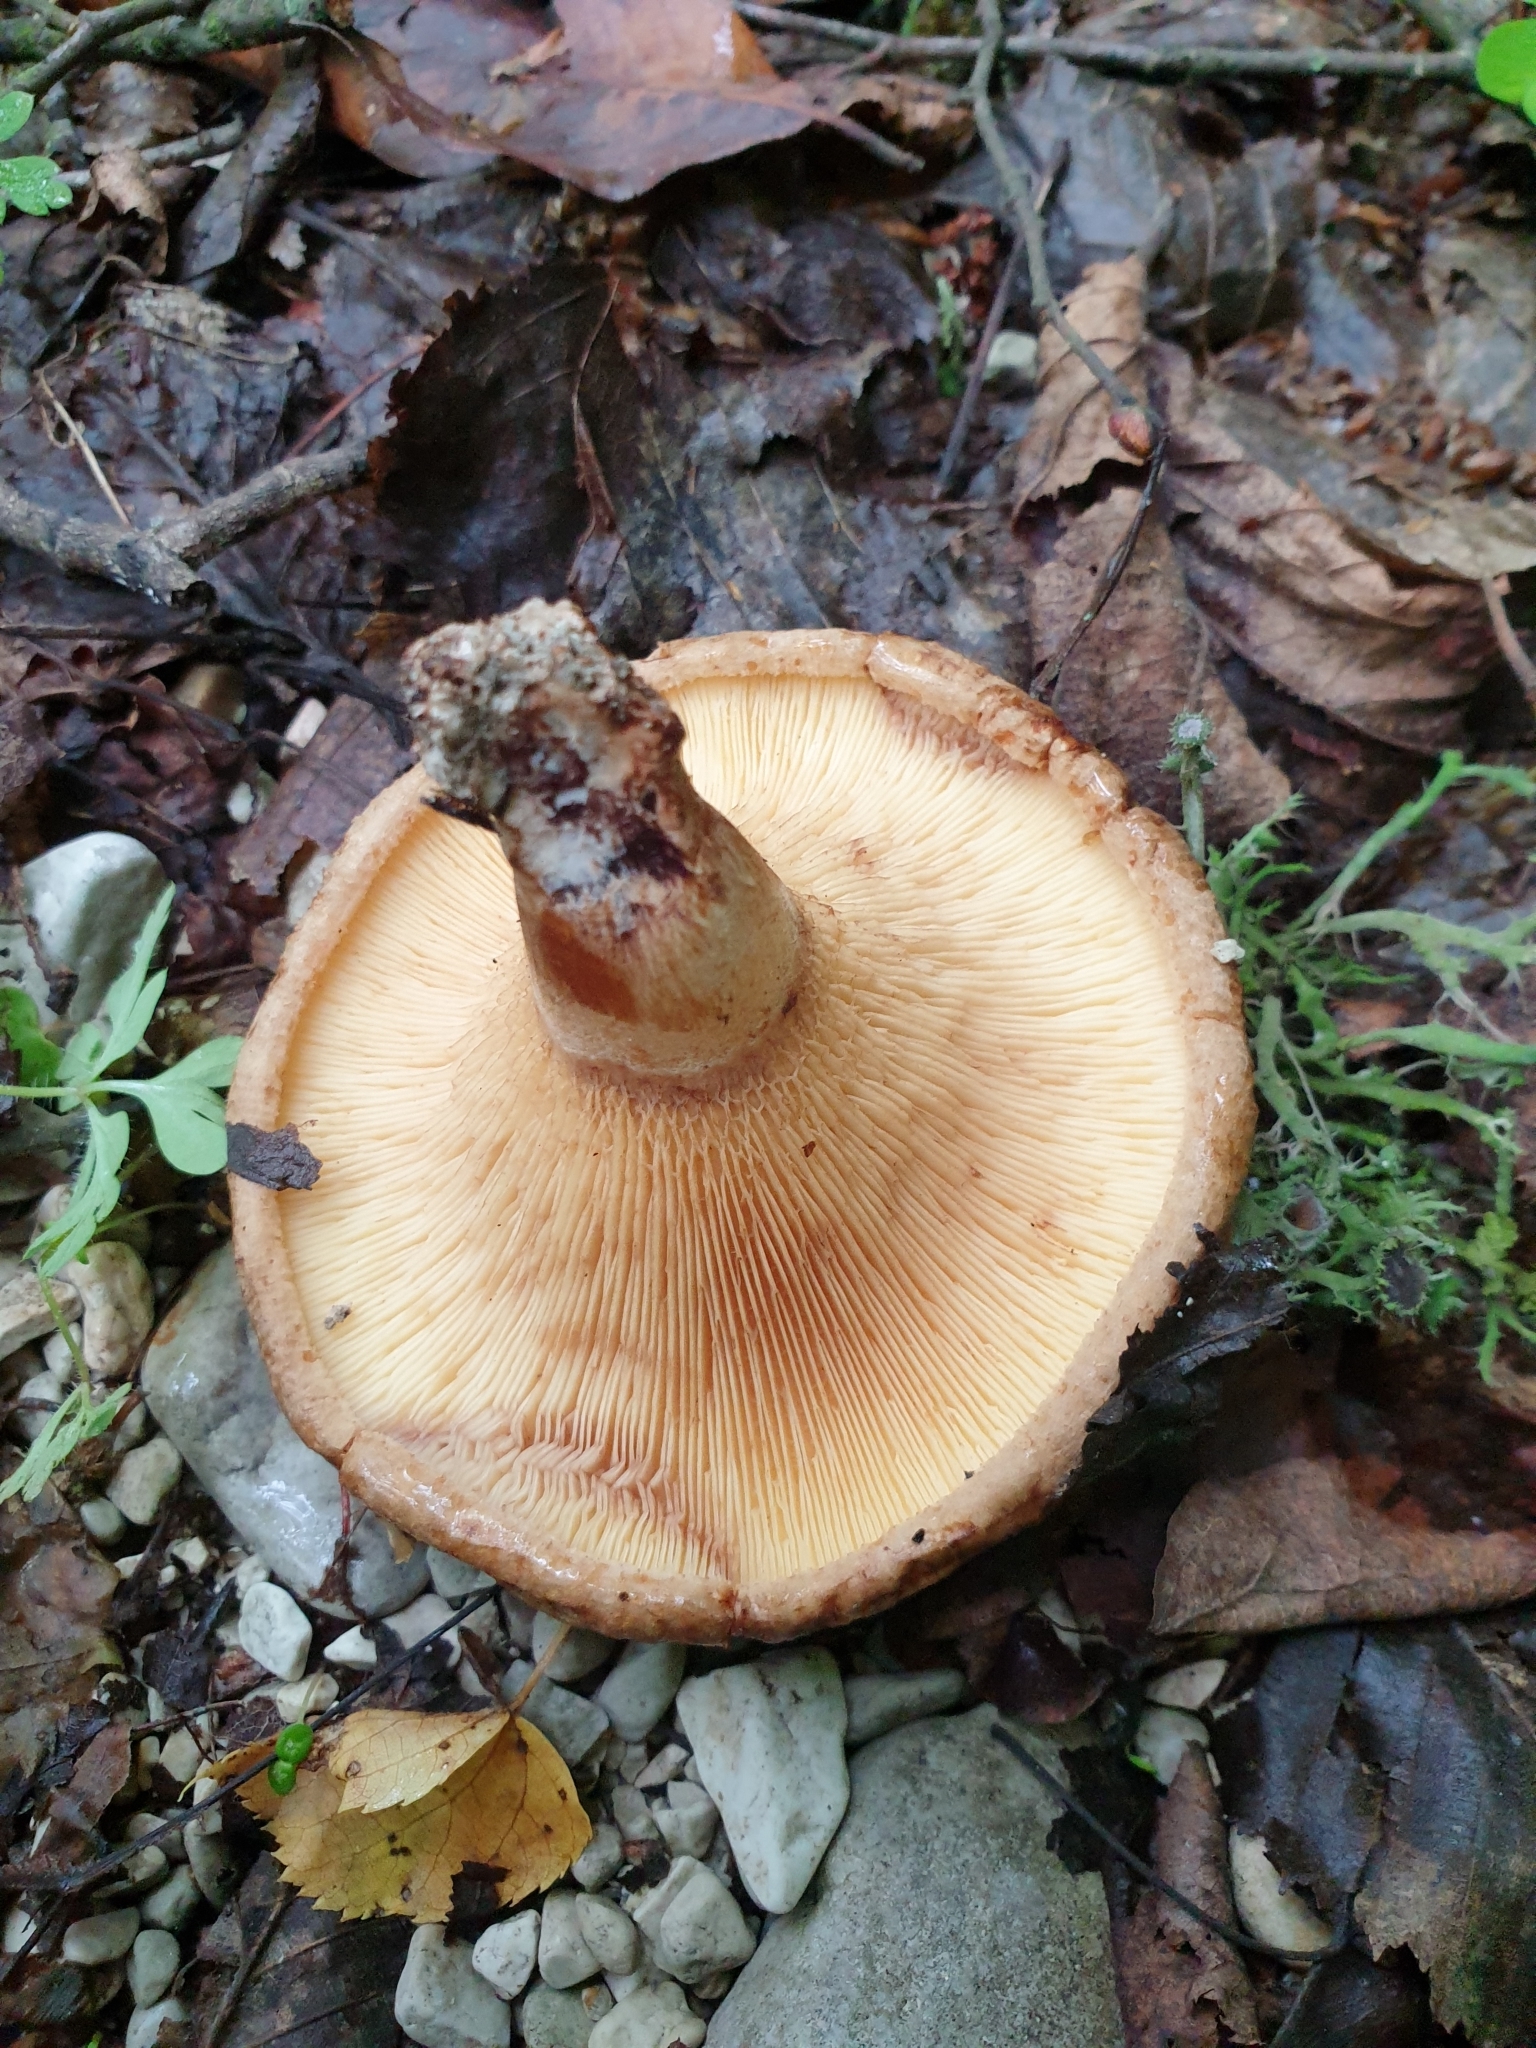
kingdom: Fungi
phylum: Basidiomycota
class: Agaricomycetes
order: Boletales
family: Paxillaceae
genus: Paxillus
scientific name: Paxillus involutus
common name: Brown roll rim
